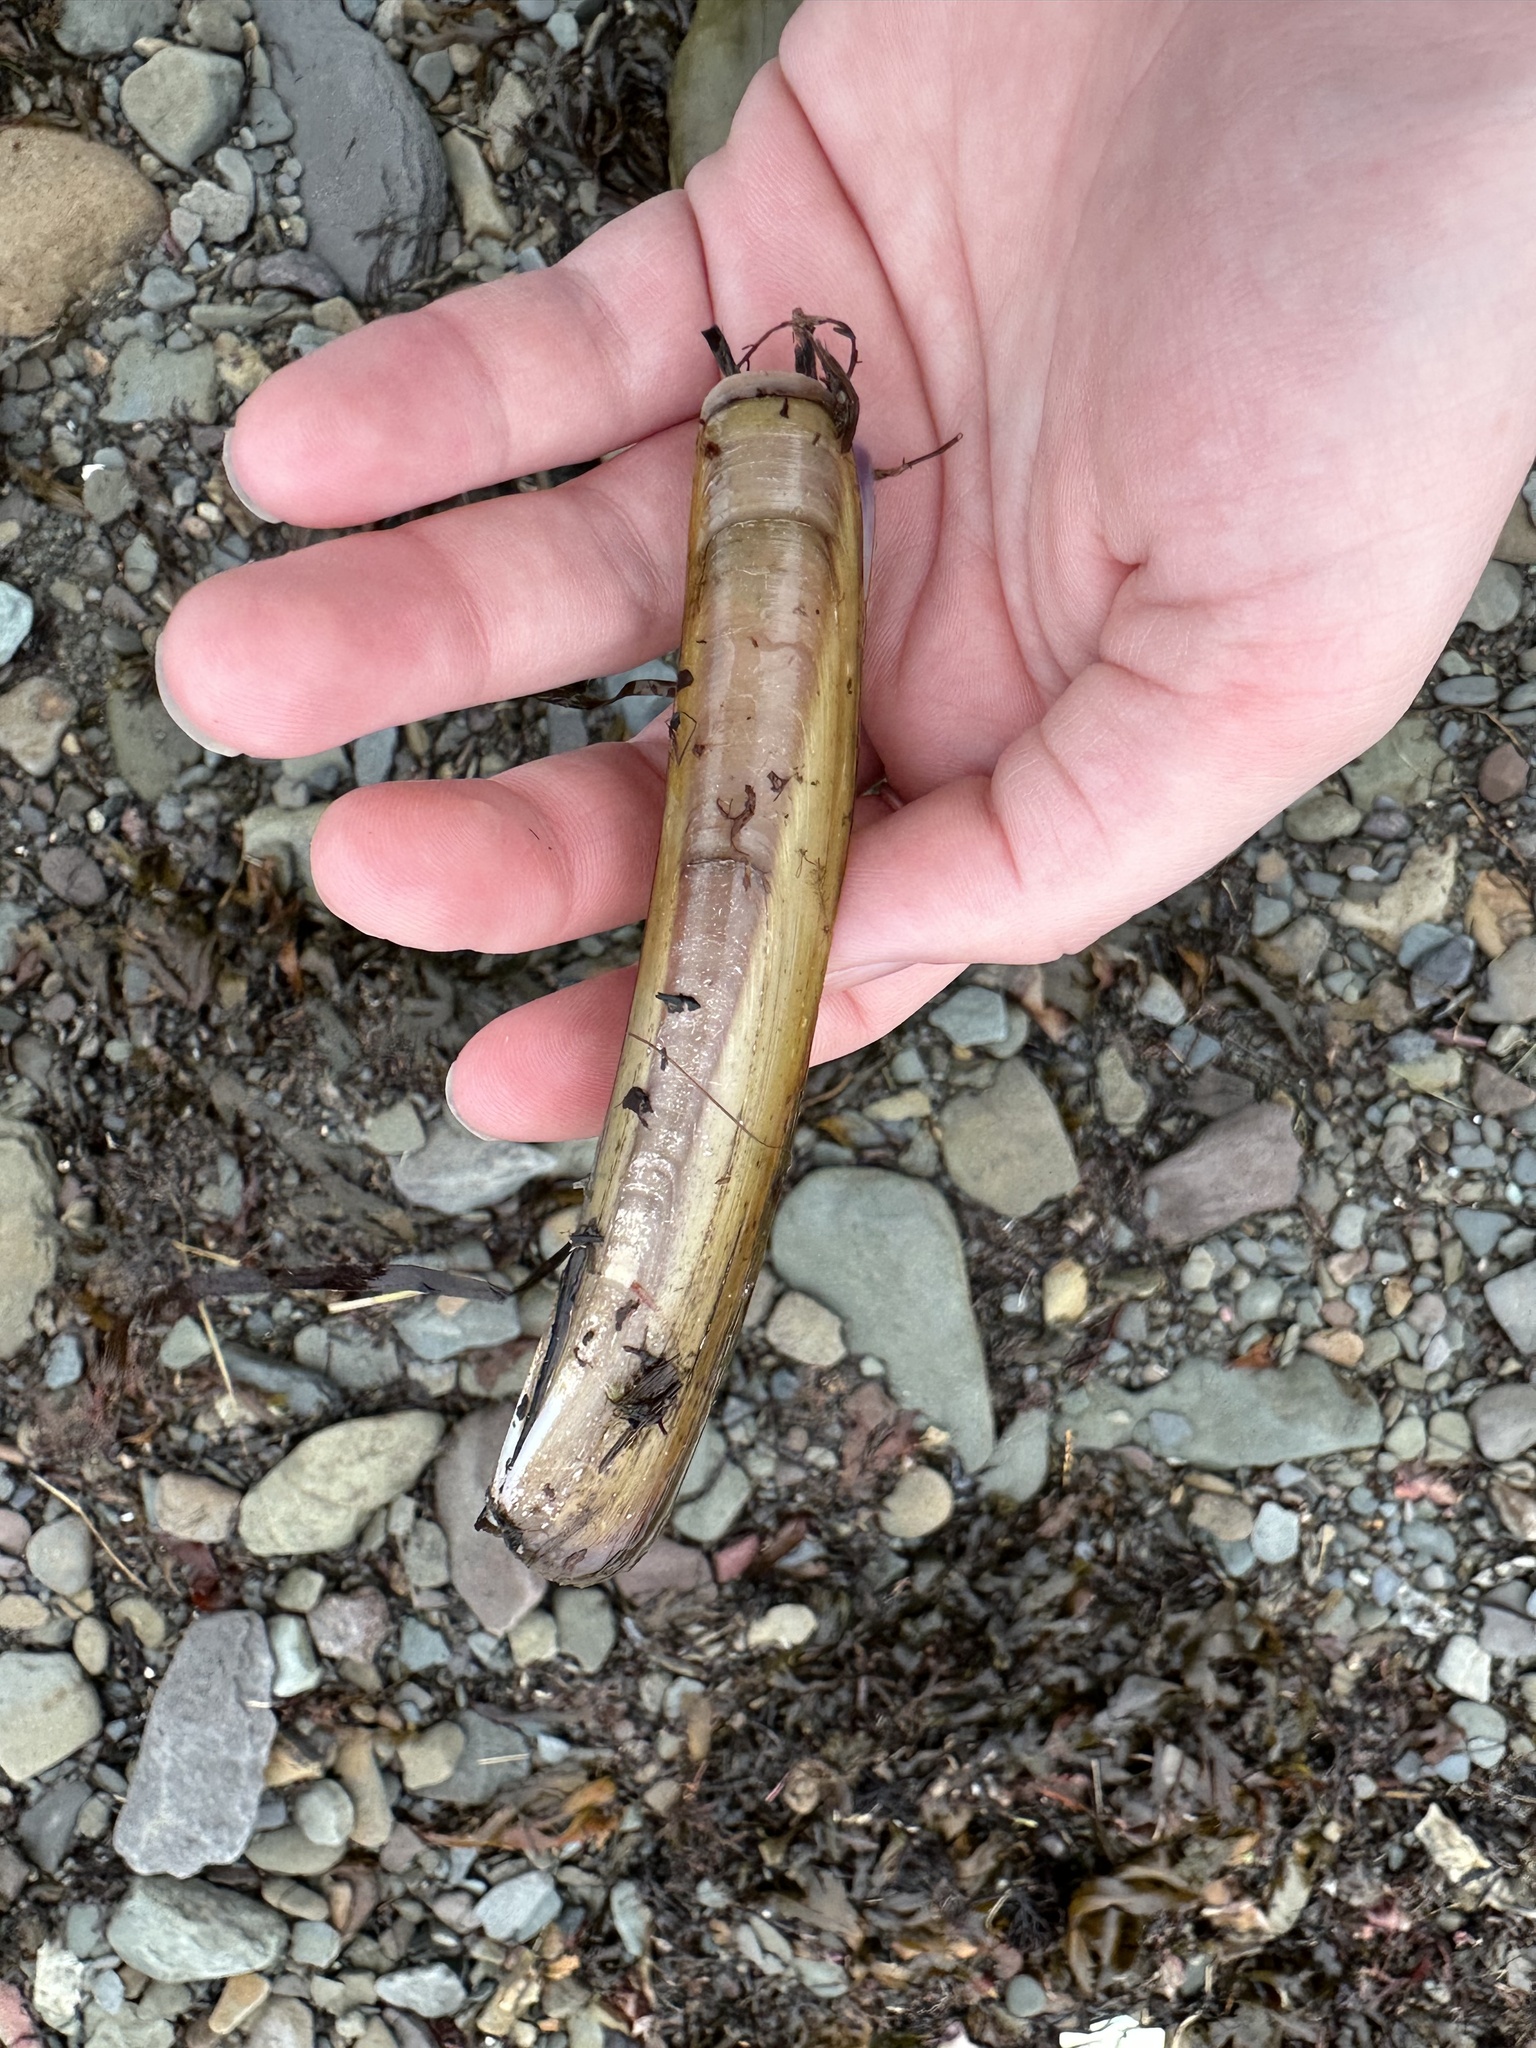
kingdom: Animalia
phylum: Mollusca
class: Bivalvia
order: Adapedonta
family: Pharidae
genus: Ensis
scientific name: Ensis leei
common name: American jack knife clam
